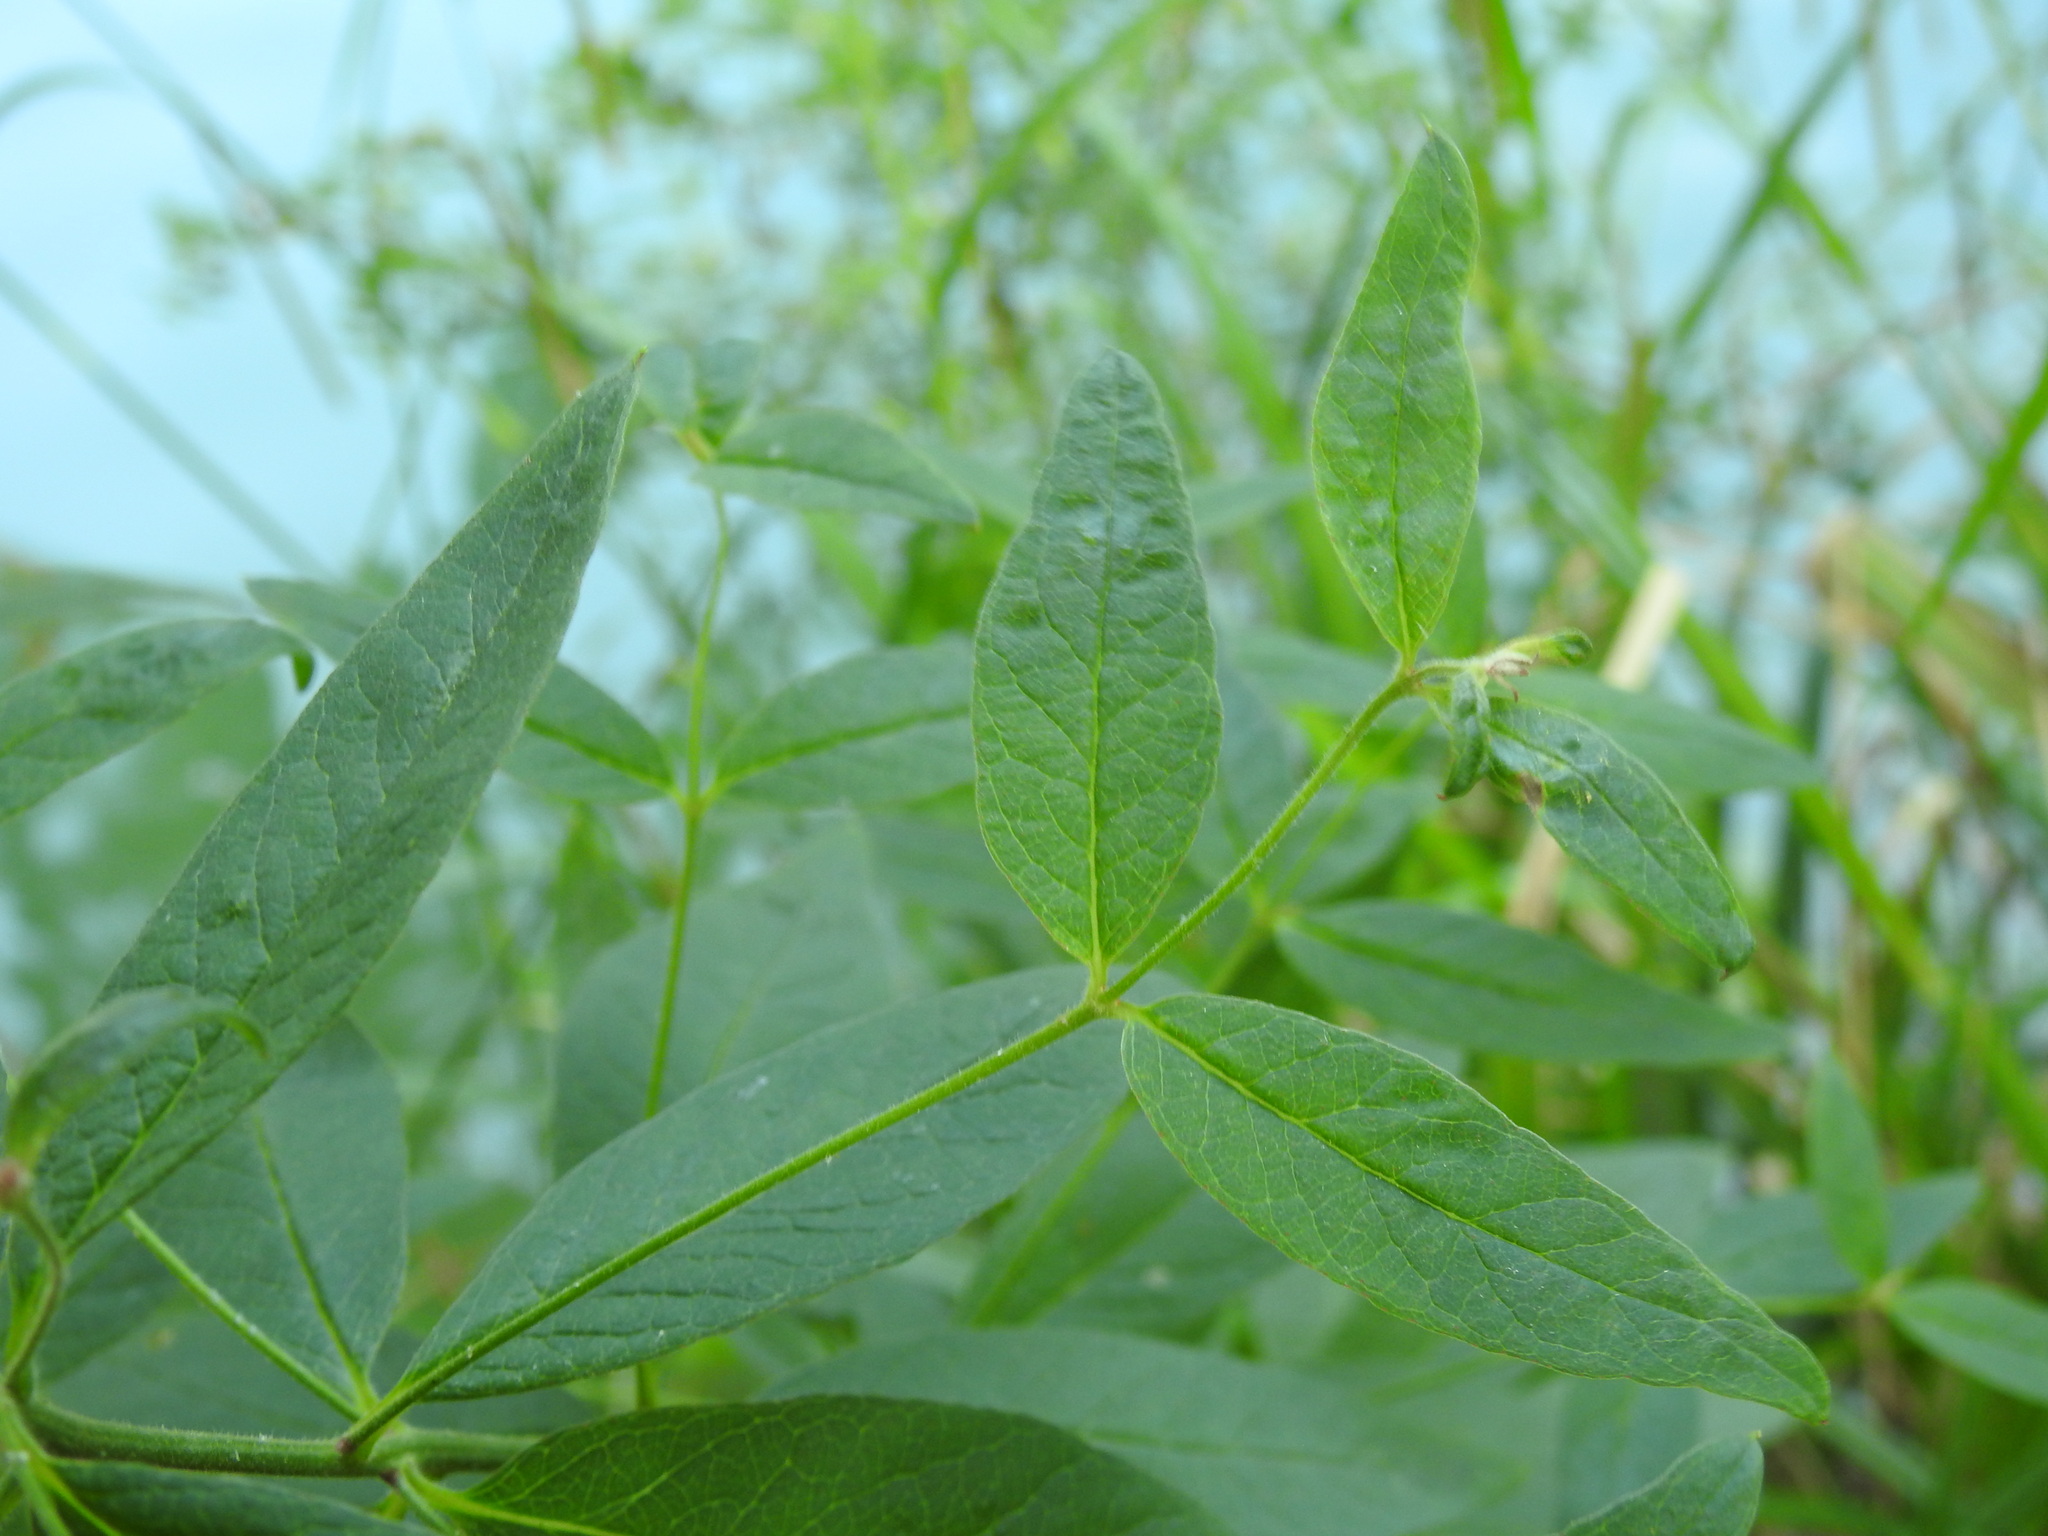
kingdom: Plantae
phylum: Tracheophyta
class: Magnoliopsida
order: Ericales
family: Primulaceae
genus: Lysimachia
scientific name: Lysimachia vulgaris
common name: Yellow loosestrife
